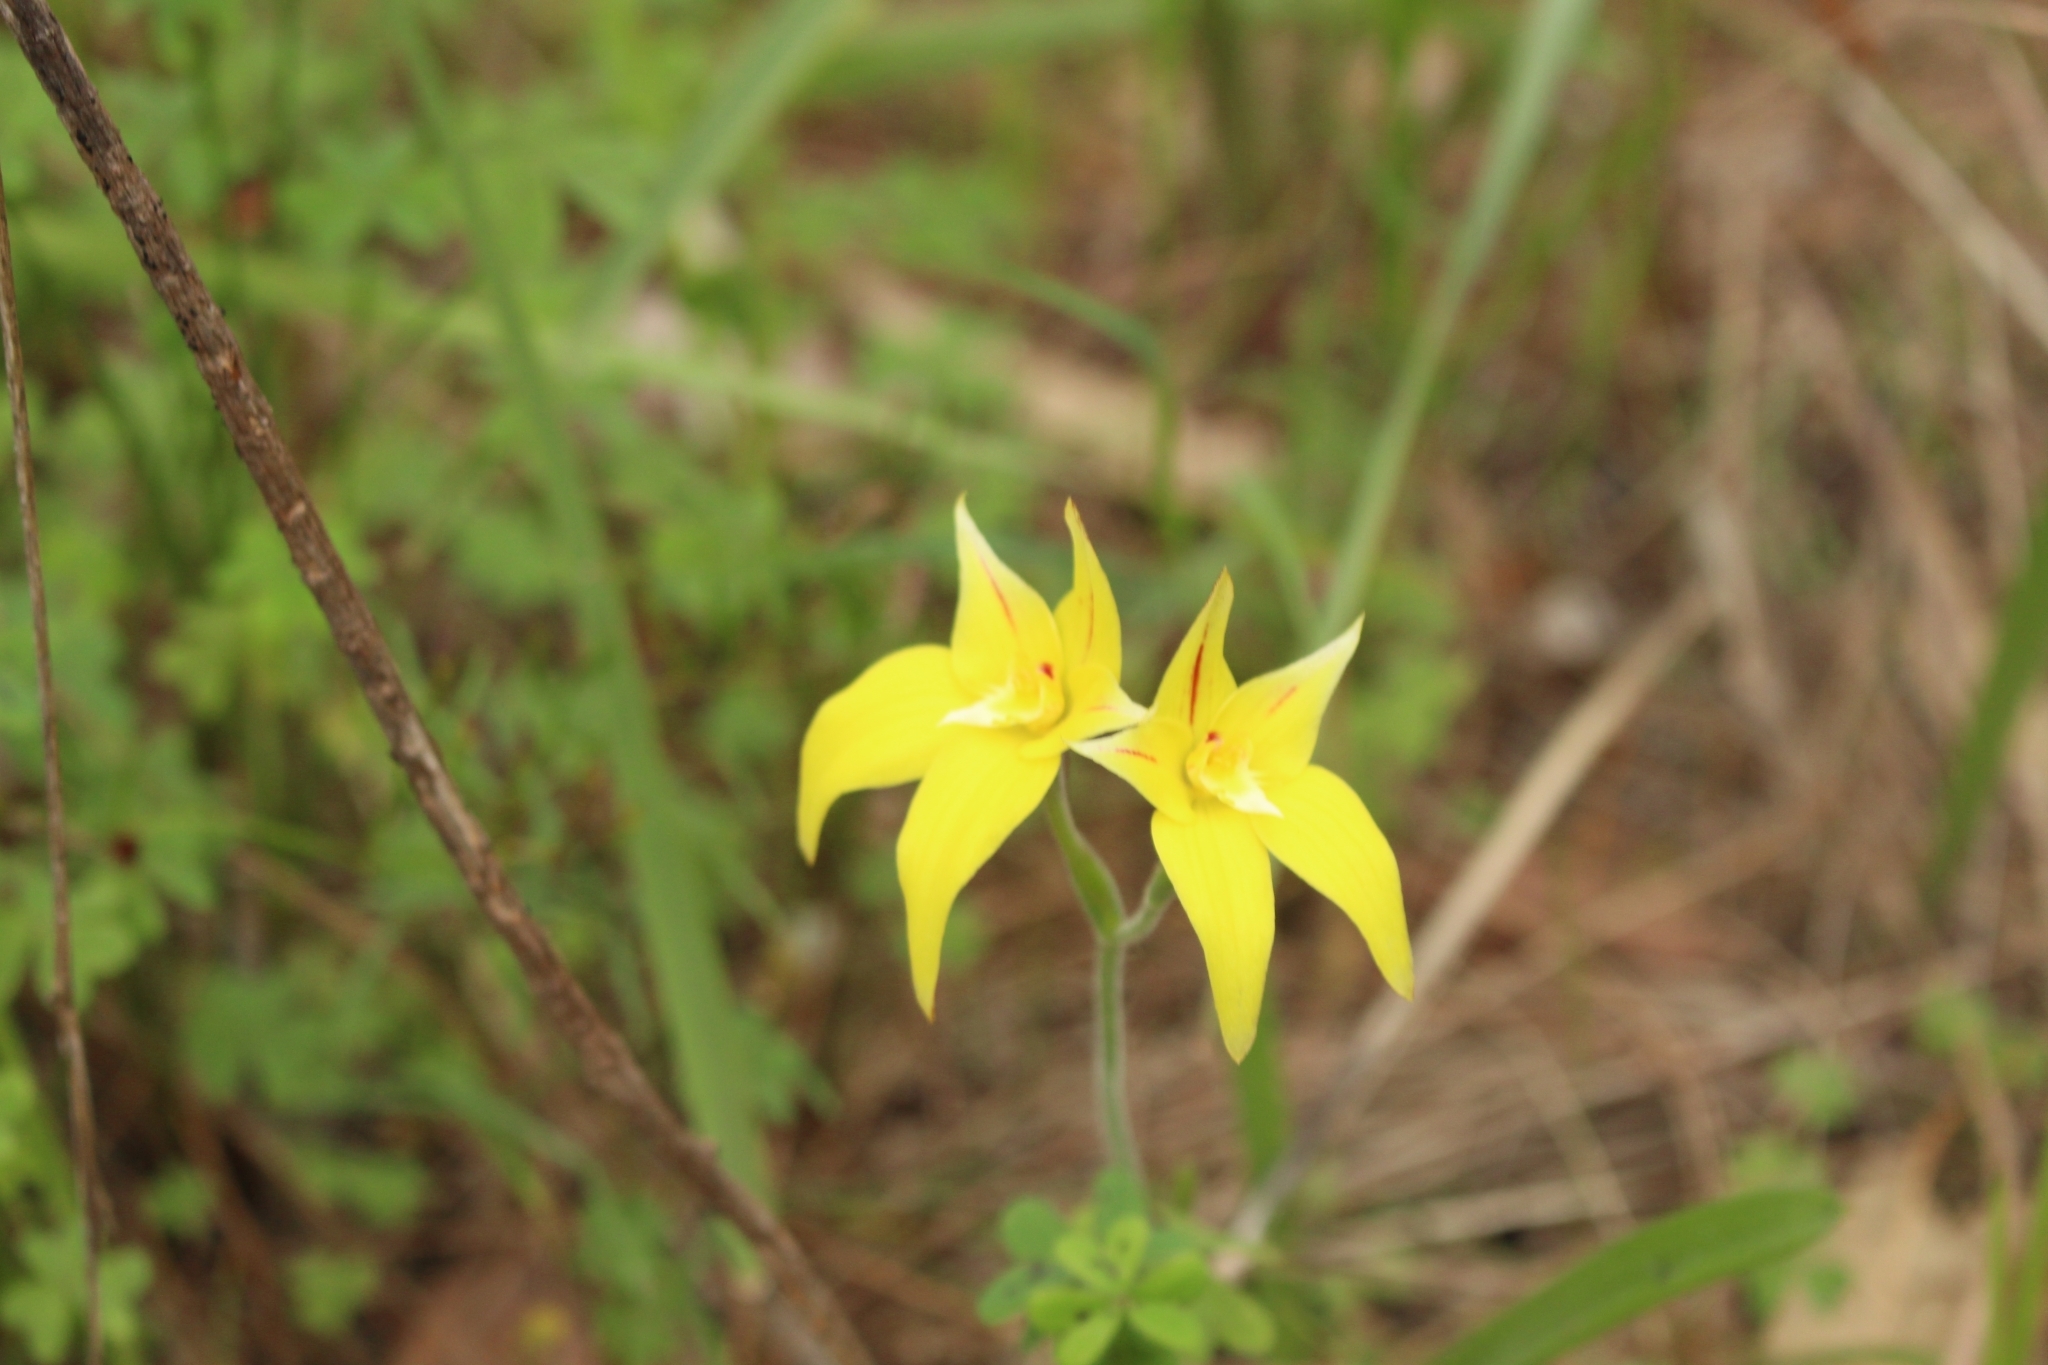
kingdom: Plantae
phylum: Tracheophyta
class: Liliopsida
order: Asparagales
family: Orchidaceae
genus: Caladenia
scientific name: Caladenia flava
